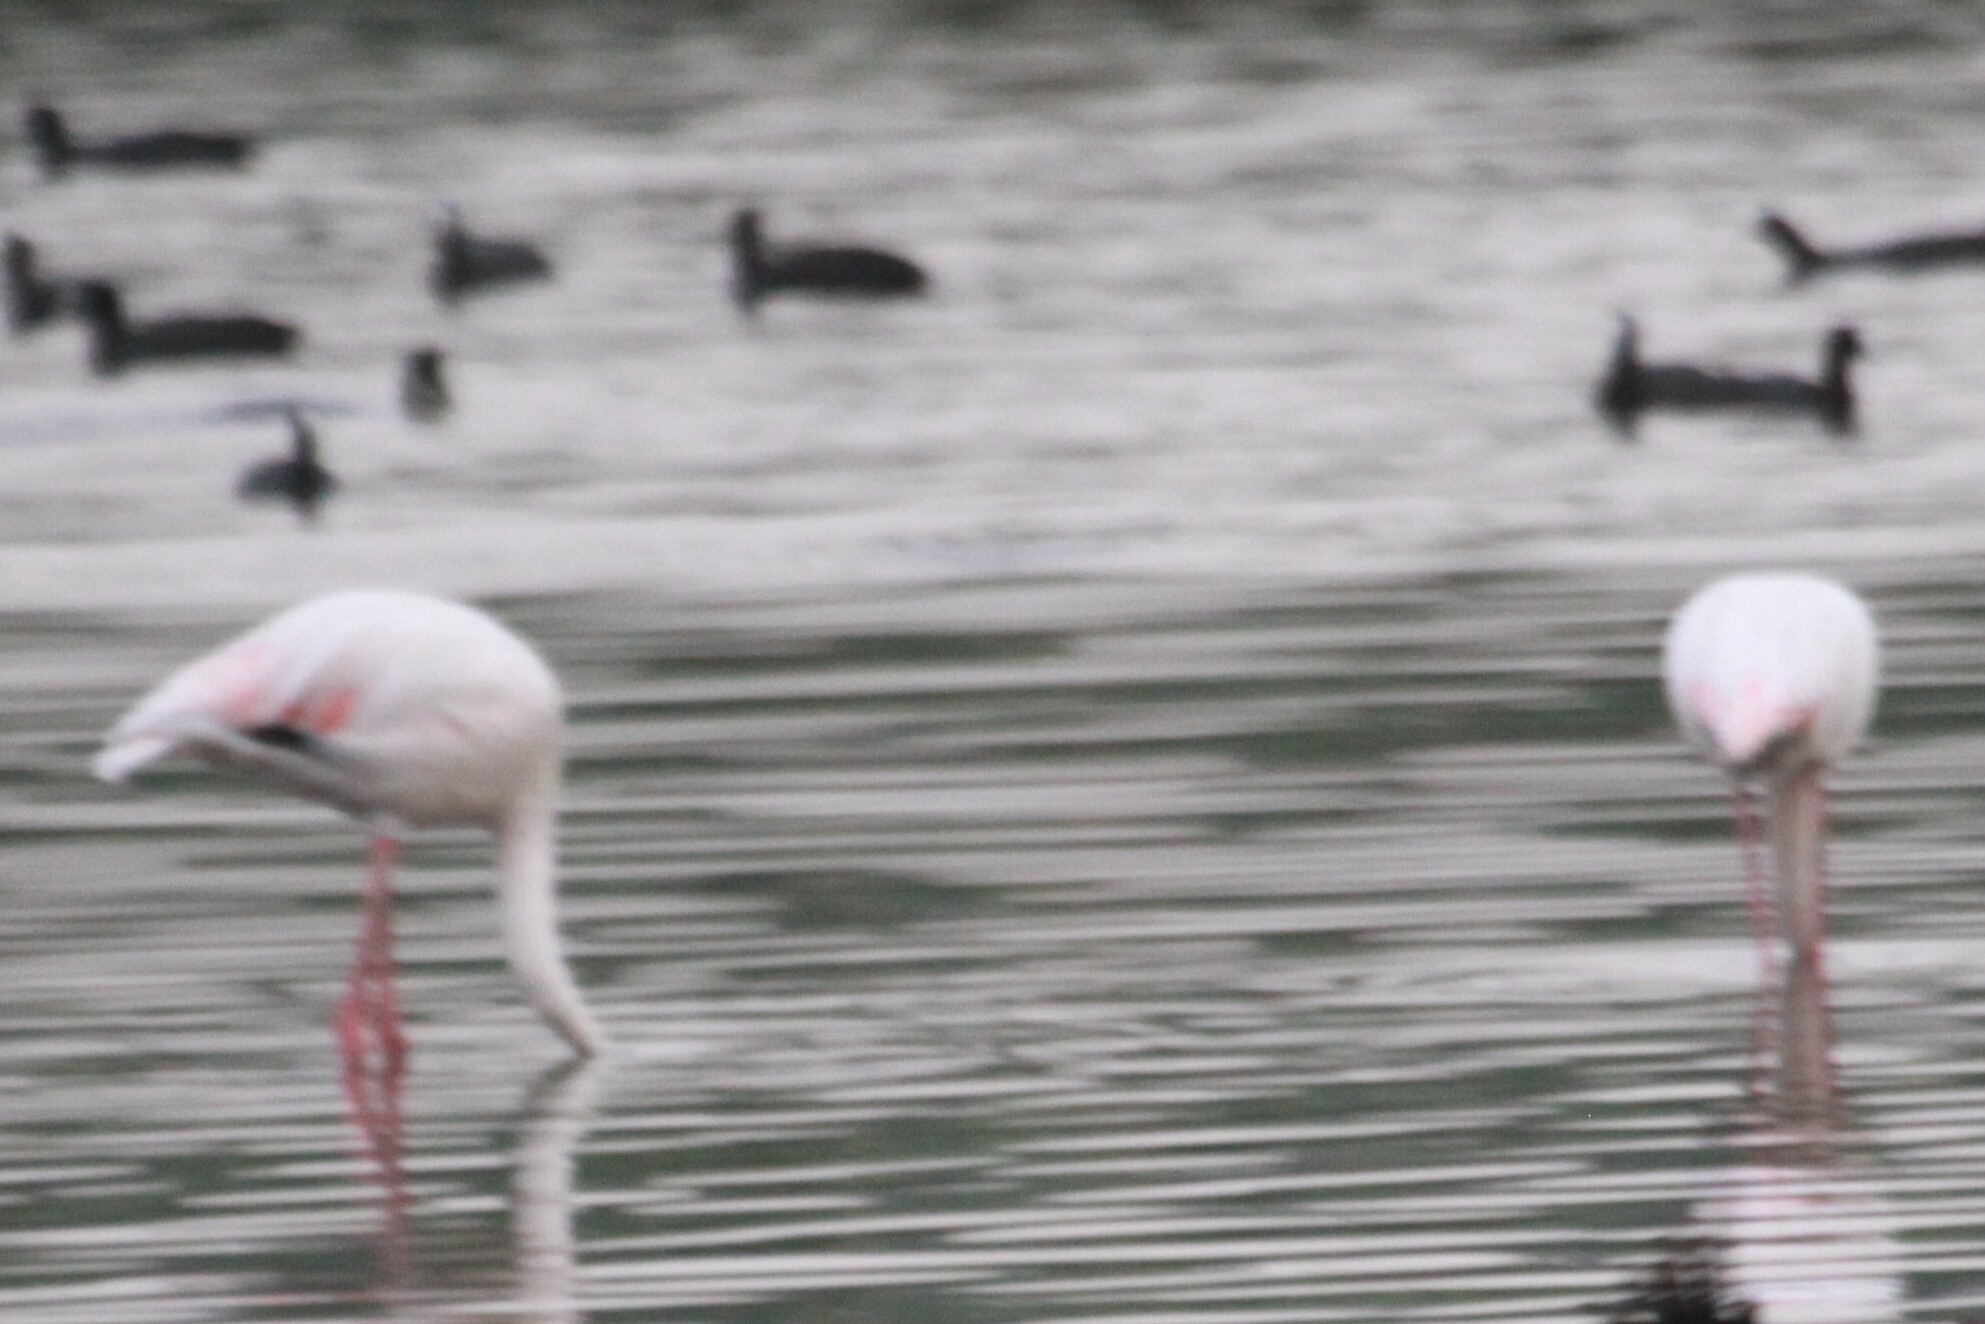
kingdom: Animalia
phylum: Chordata
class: Aves
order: Phoenicopteriformes
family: Phoenicopteridae
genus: Phoenicopterus
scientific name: Phoenicopterus roseus
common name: Greater flamingo
